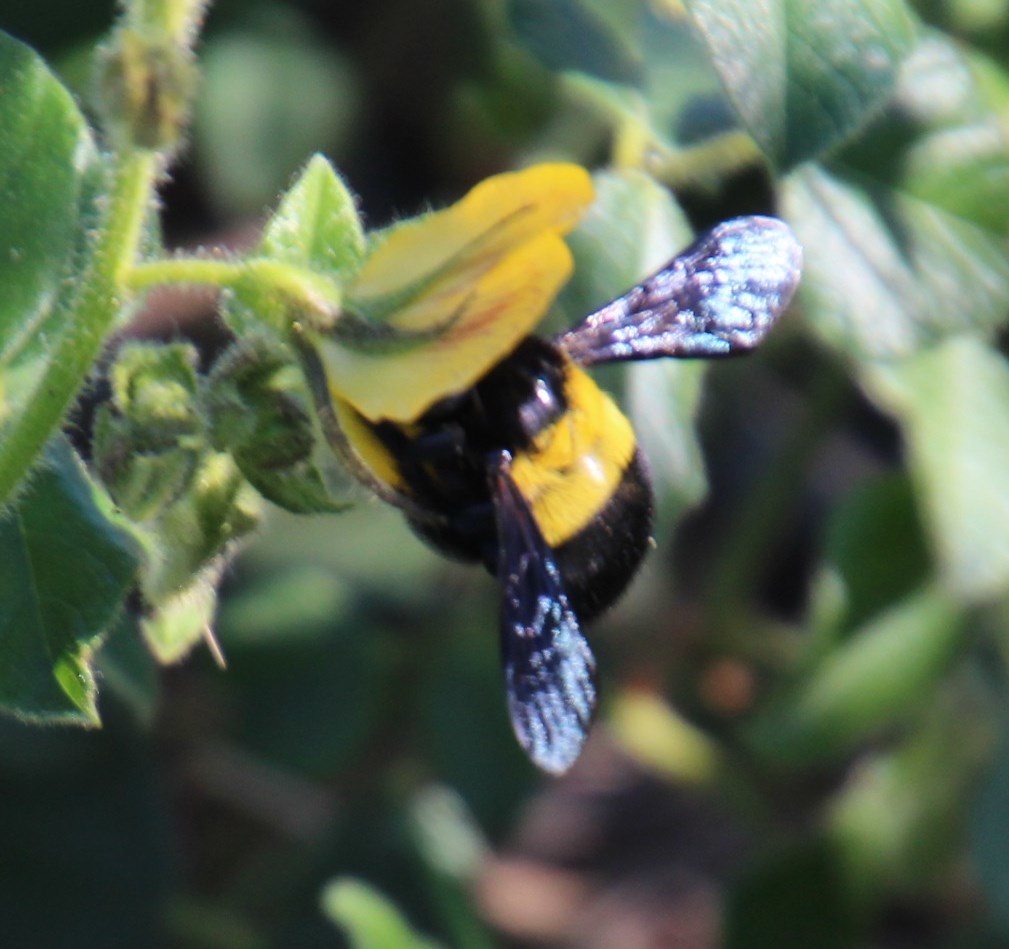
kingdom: Plantae
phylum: Tracheophyta
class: Magnoliopsida
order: Fabales
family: Fabaceae
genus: Bolusafra
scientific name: Bolusafra bituminosa
